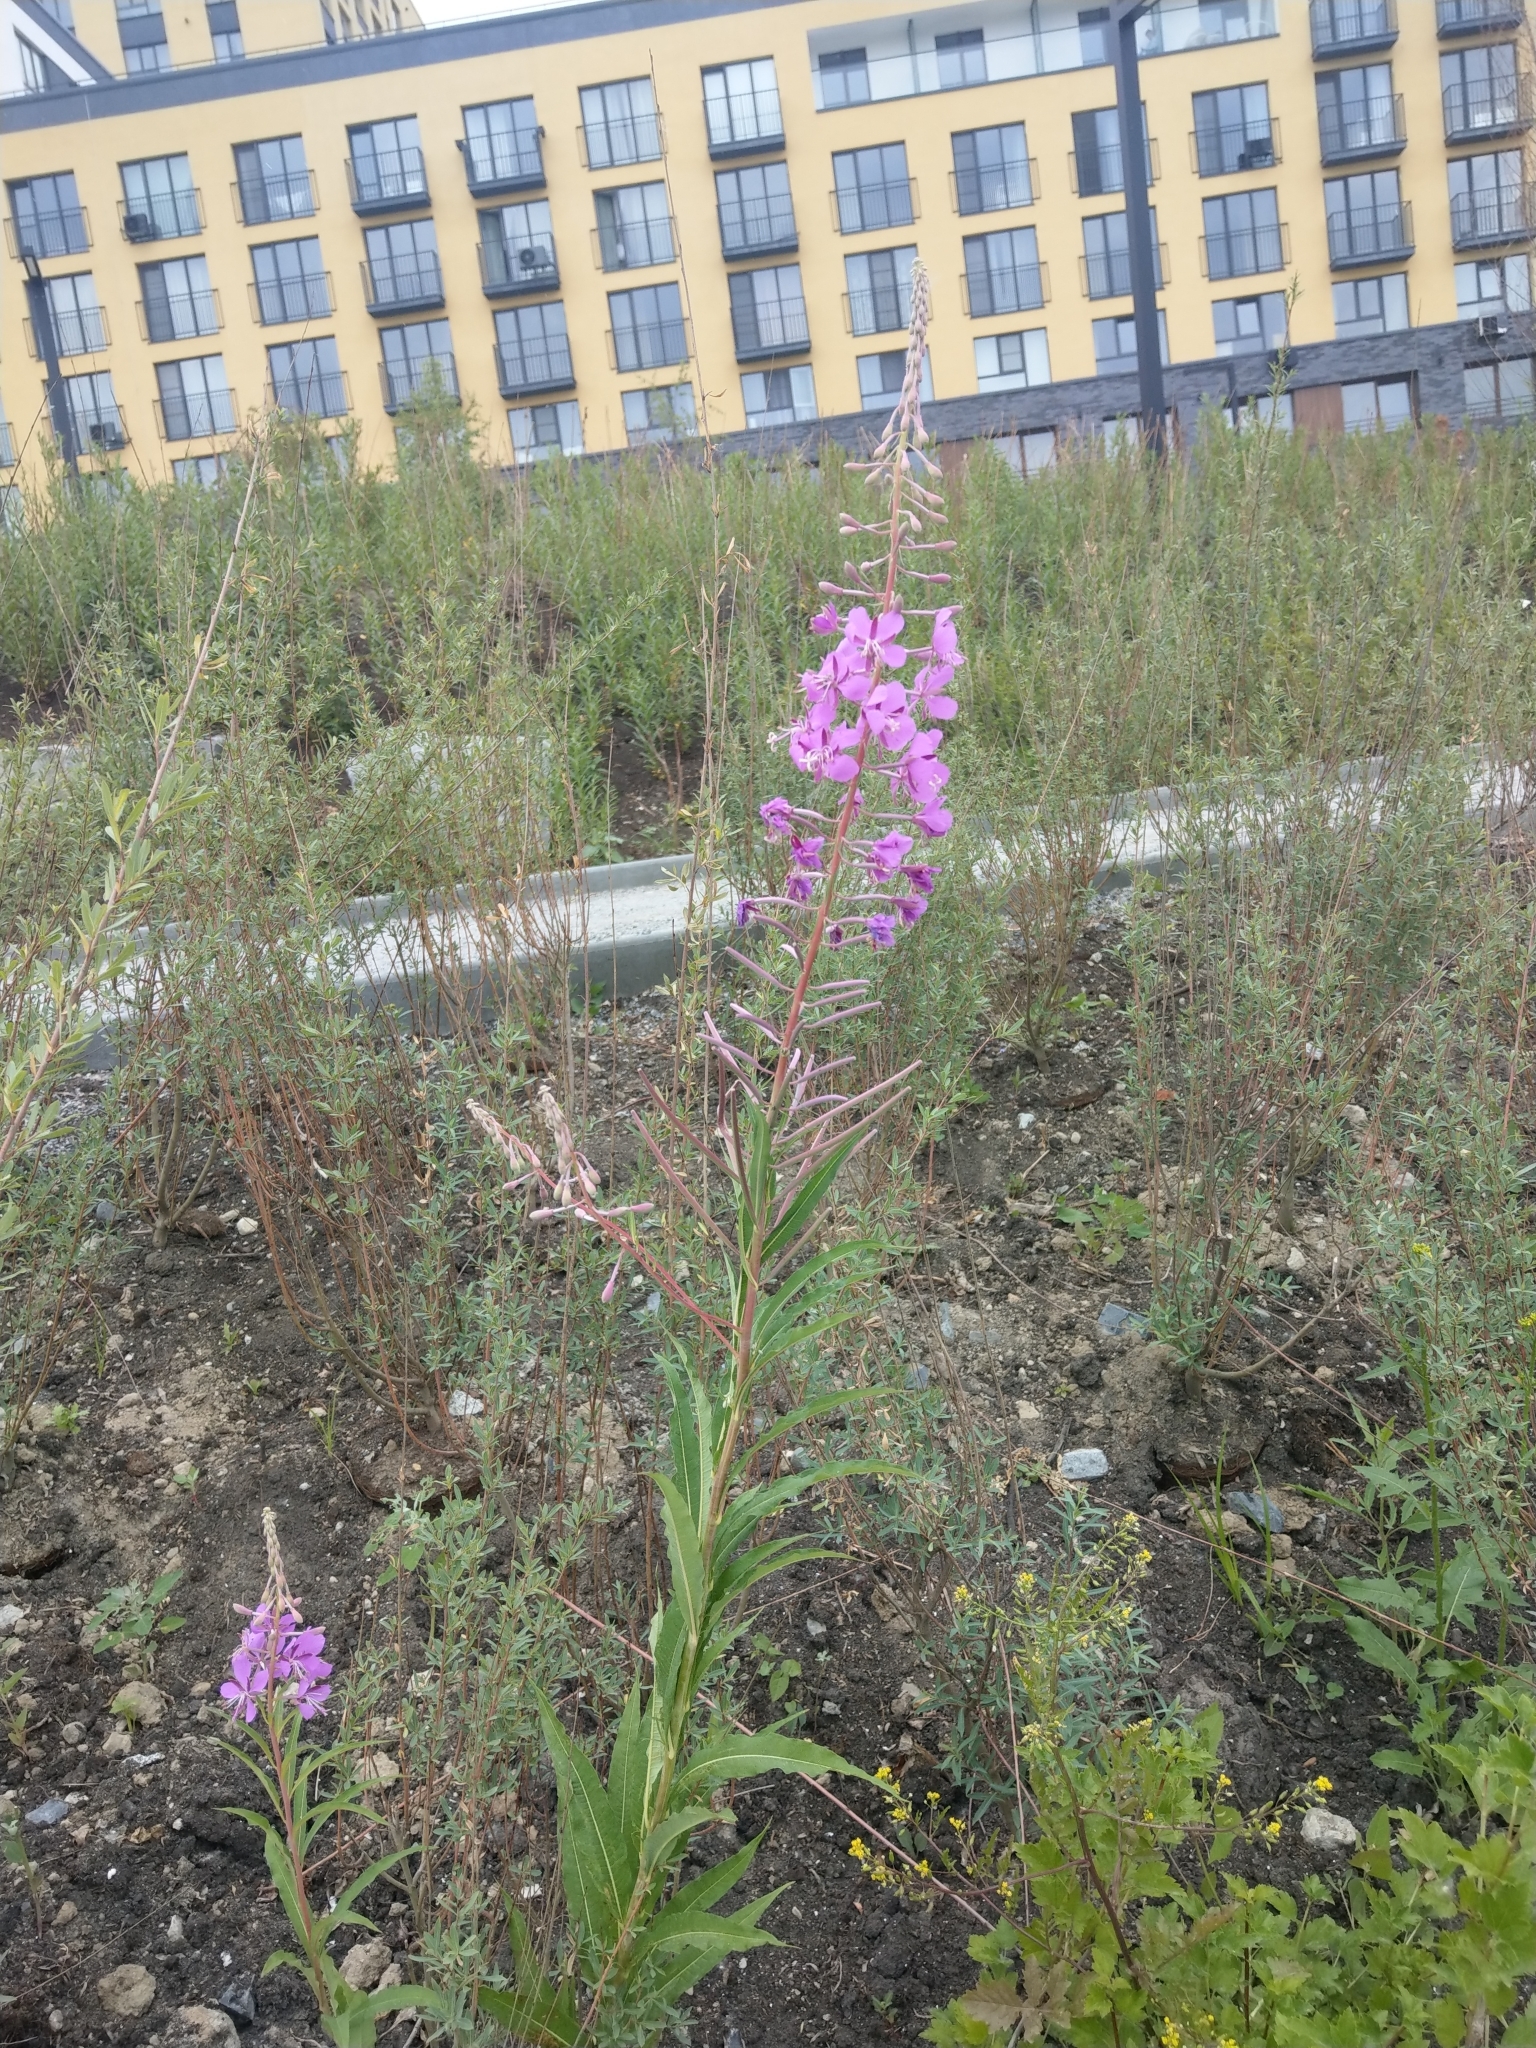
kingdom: Plantae
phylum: Tracheophyta
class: Magnoliopsida
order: Myrtales
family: Onagraceae
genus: Chamaenerion
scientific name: Chamaenerion angustifolium
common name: Fireweed
